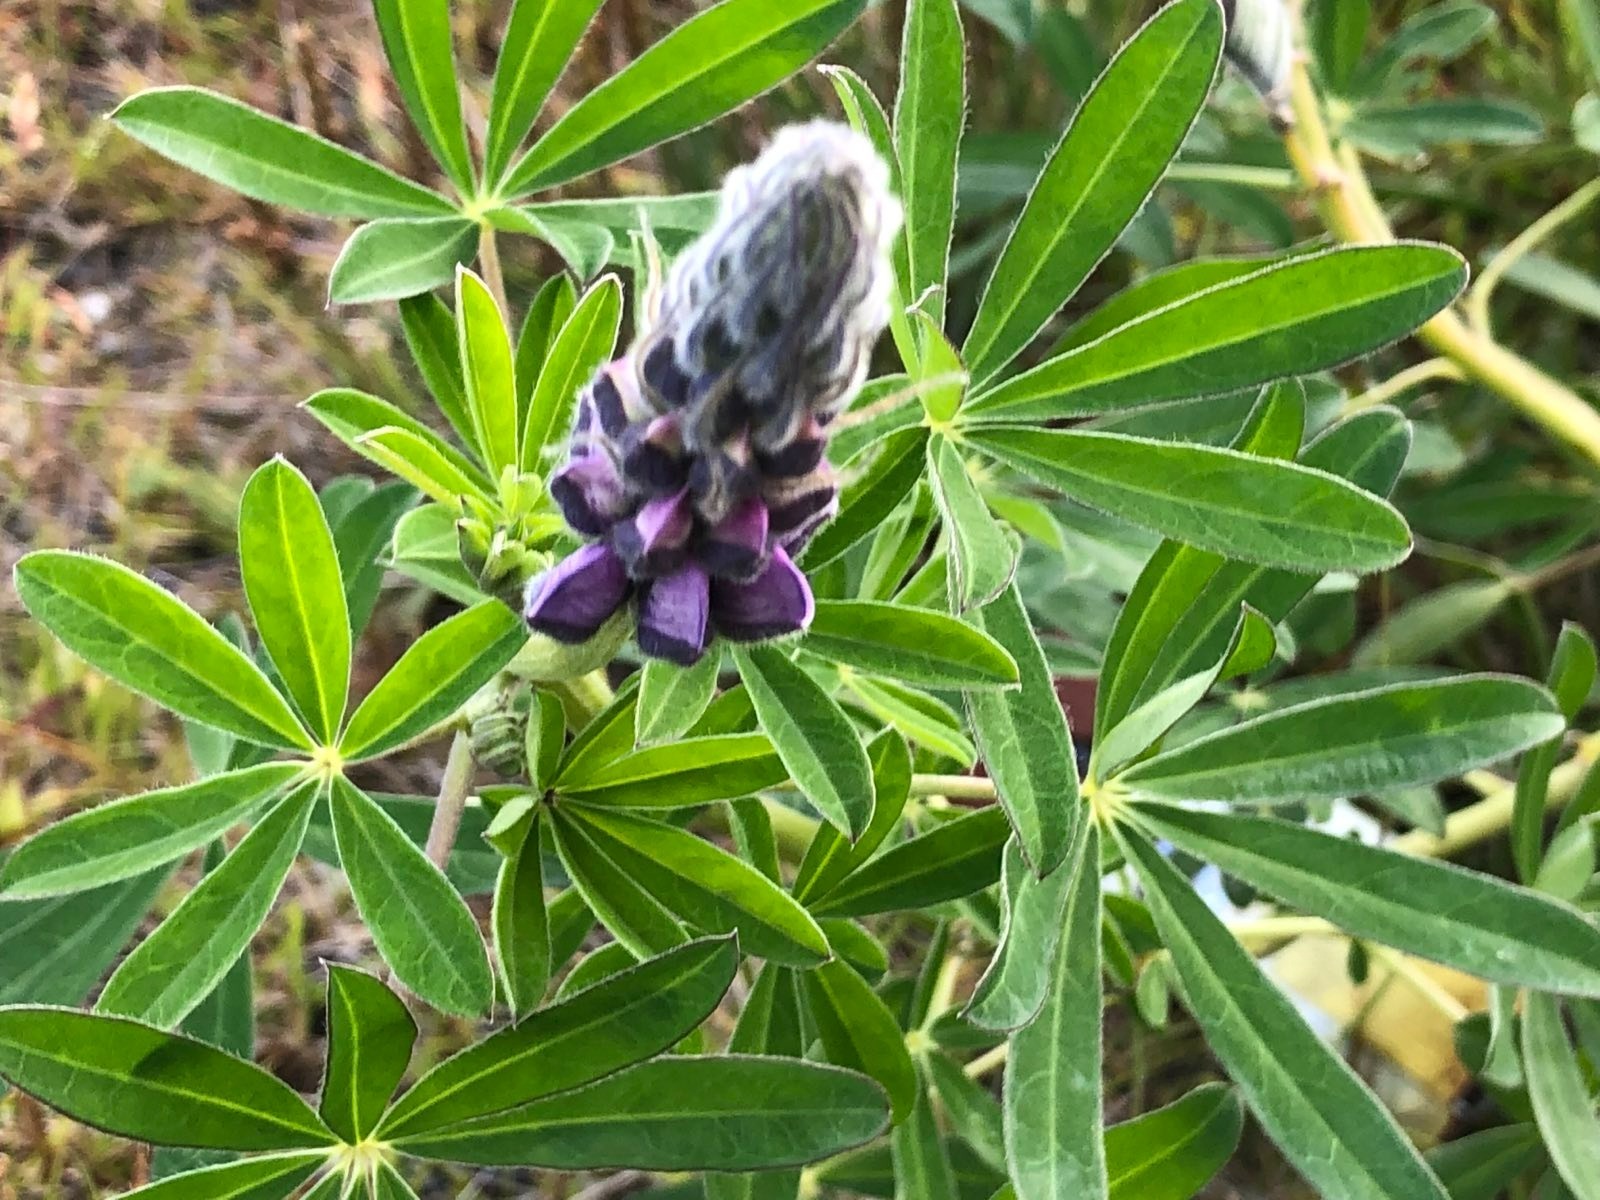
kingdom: Plantae
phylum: Tracheophyta
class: Magnoliopsida
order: Fabales
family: Fabaceae
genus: Lupinus
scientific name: Lupinus nootkatensis
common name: Nootka lupine
